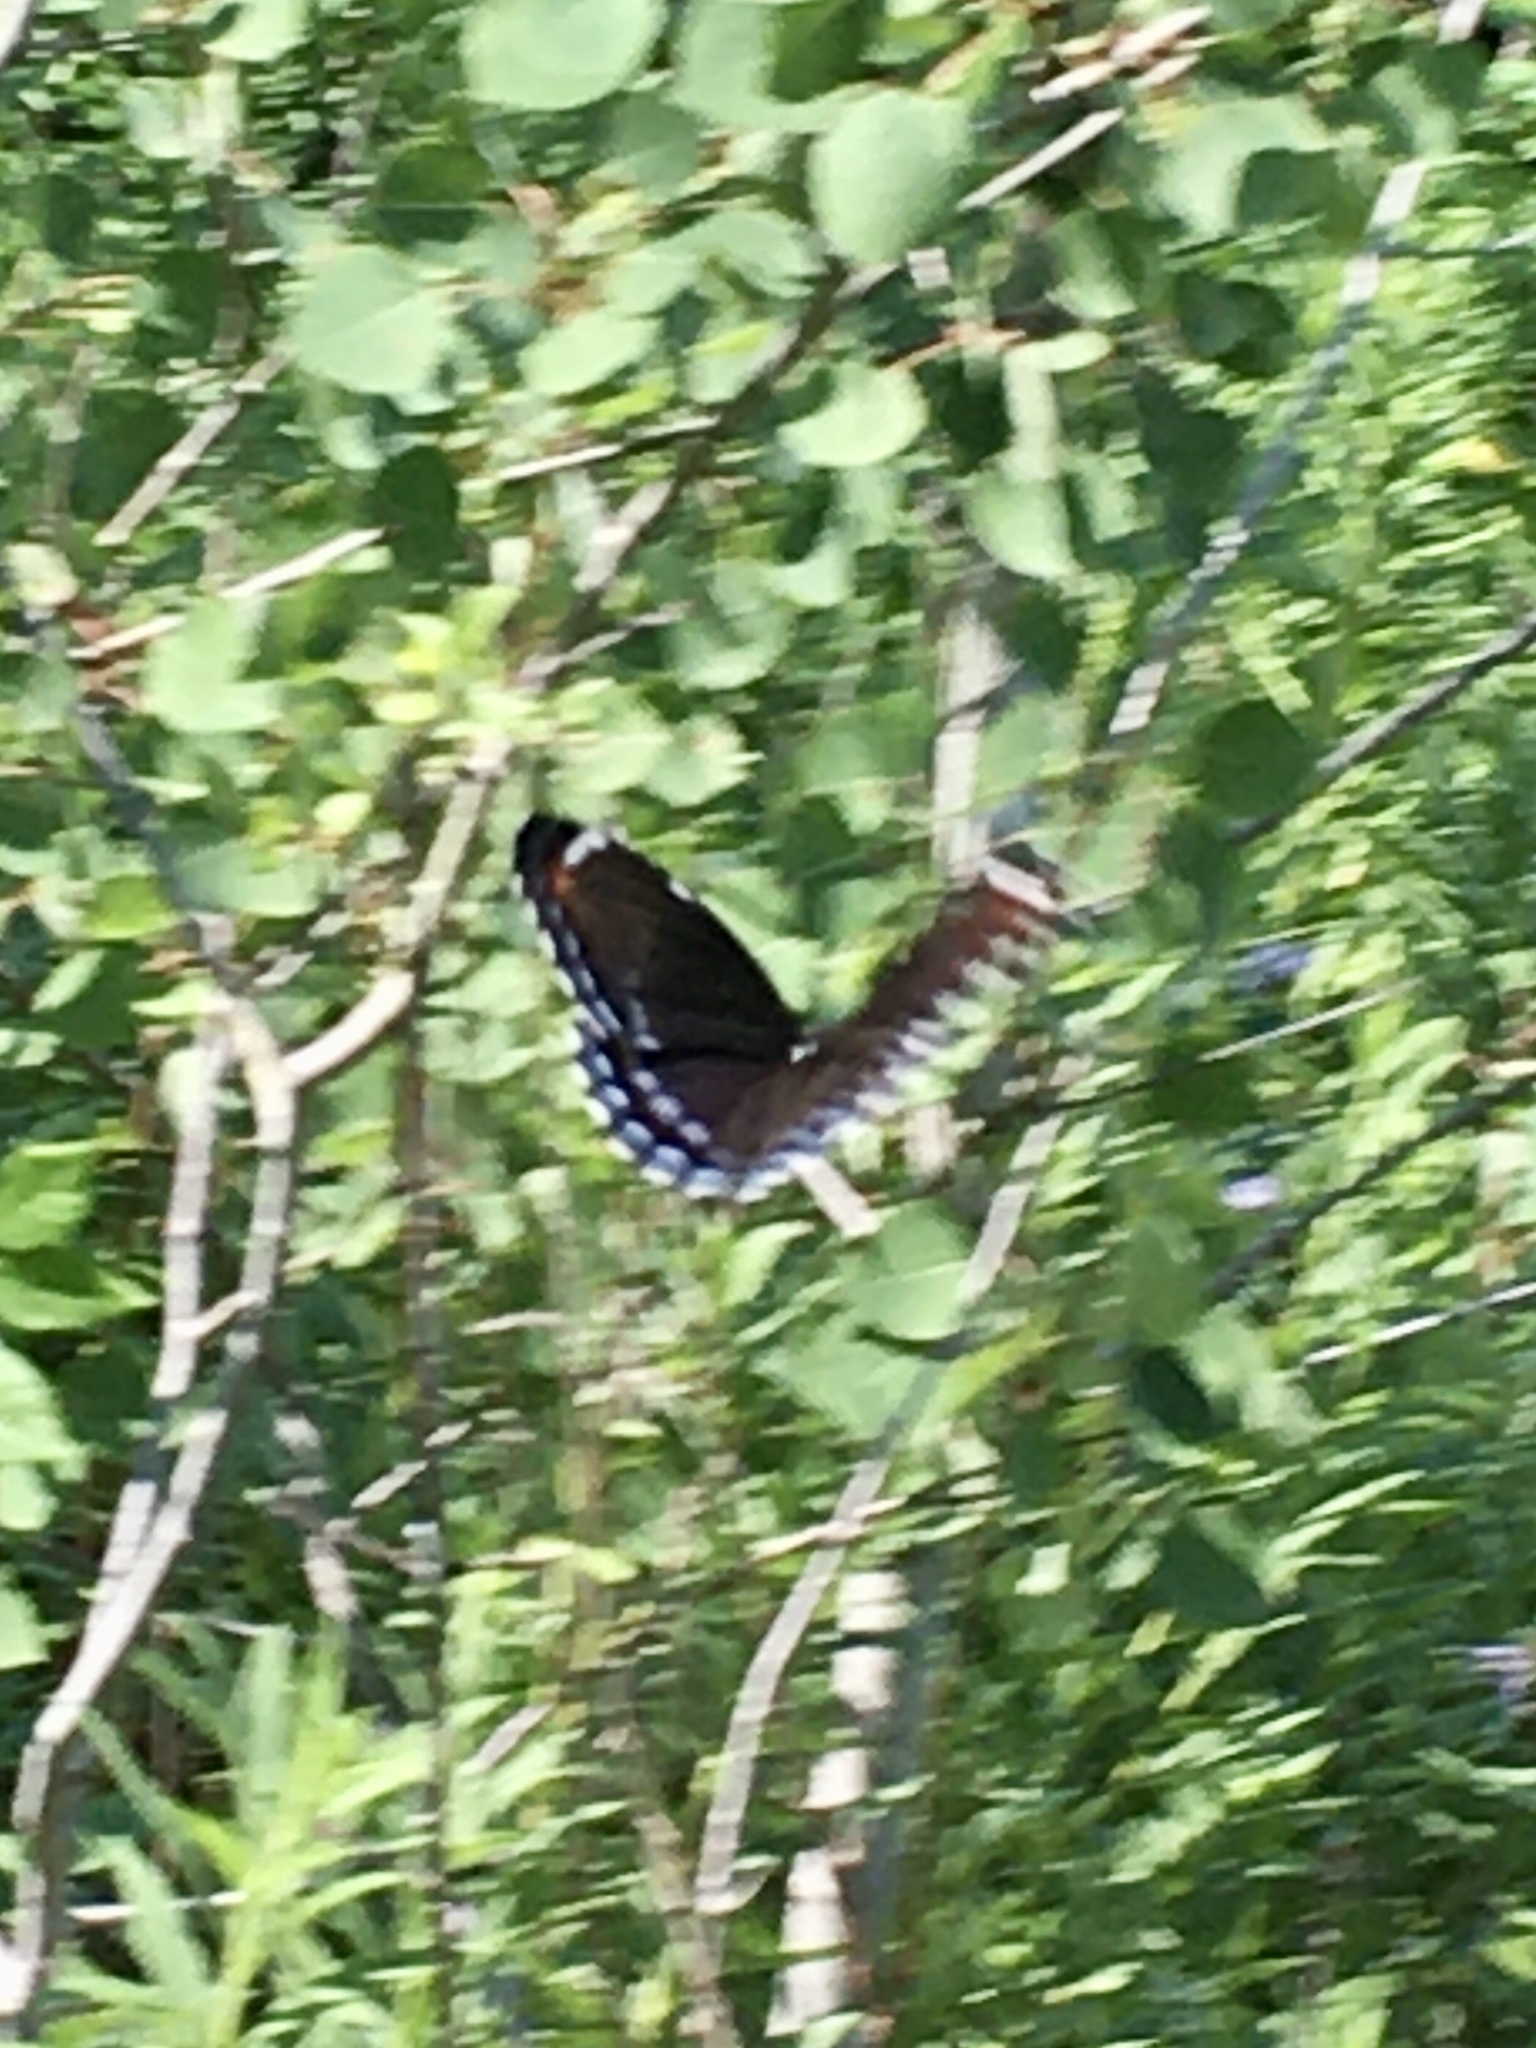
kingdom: Animalia
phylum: Arthropoda
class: Insecta
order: Lepidoptera
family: Nymphalidae
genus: Limenitis
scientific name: Limenitis arthemis
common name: Red-spotted admiral
